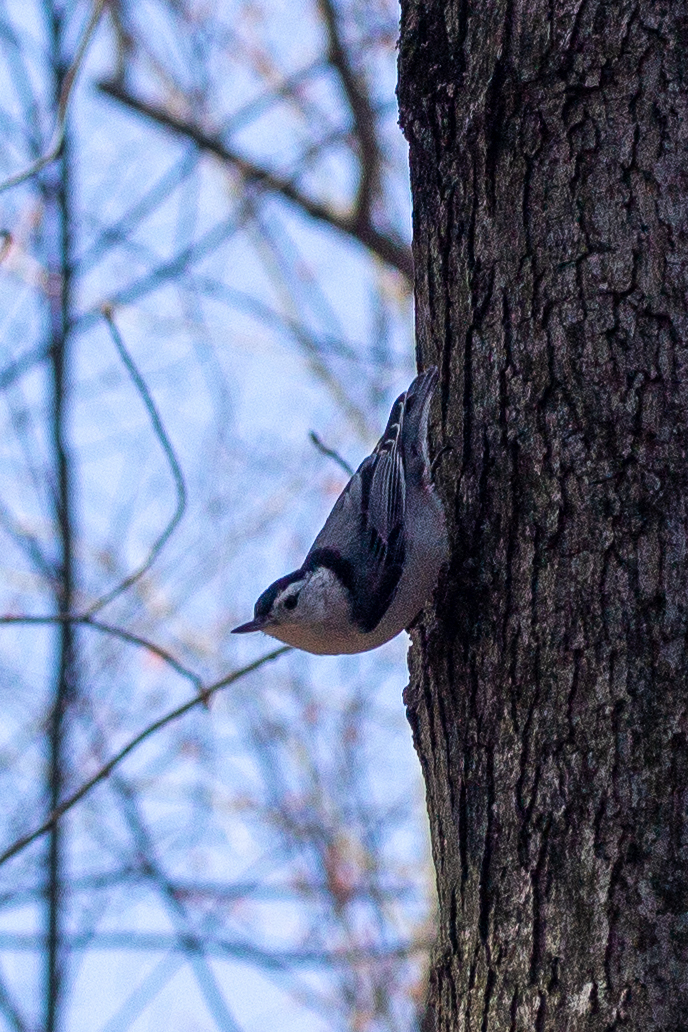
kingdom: Animalia
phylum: Chordata
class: Aves
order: Passeriformes
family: Sittidae
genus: Sitta
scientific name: Sitta carolinensis
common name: White-breasted nuthatch
